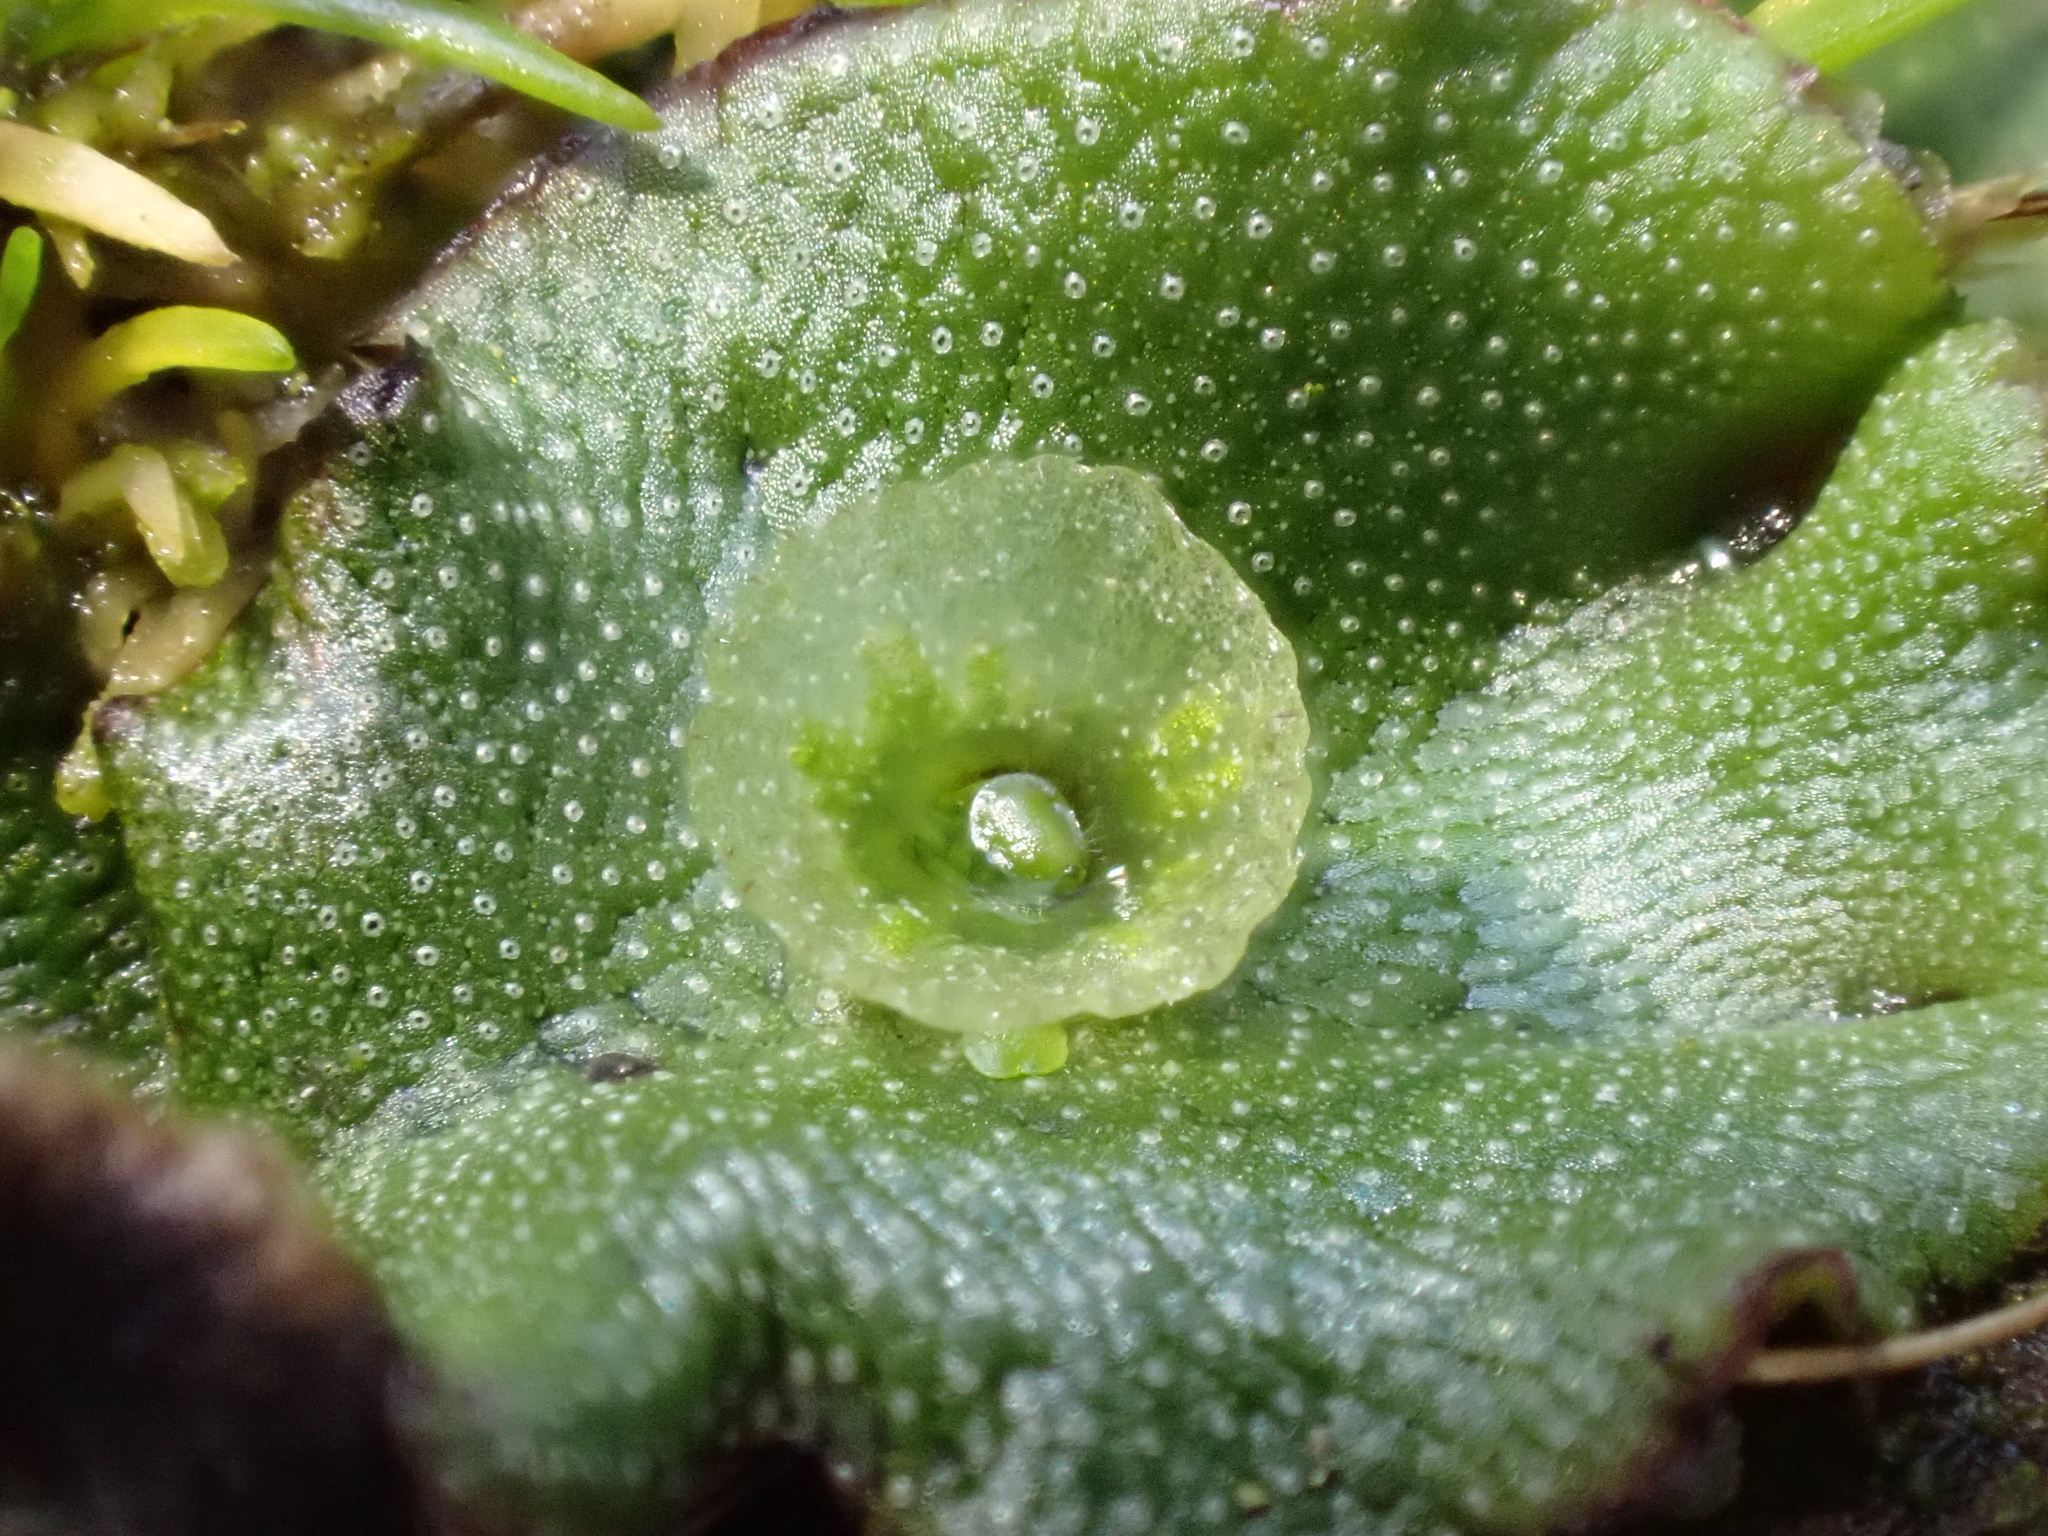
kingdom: Plantae
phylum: Marchantiophyta
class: Marchantiopsida
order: Marchantiales
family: Marchantiaceae
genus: Marchantia
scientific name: Marchantia polymorpha
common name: Common liverwort
